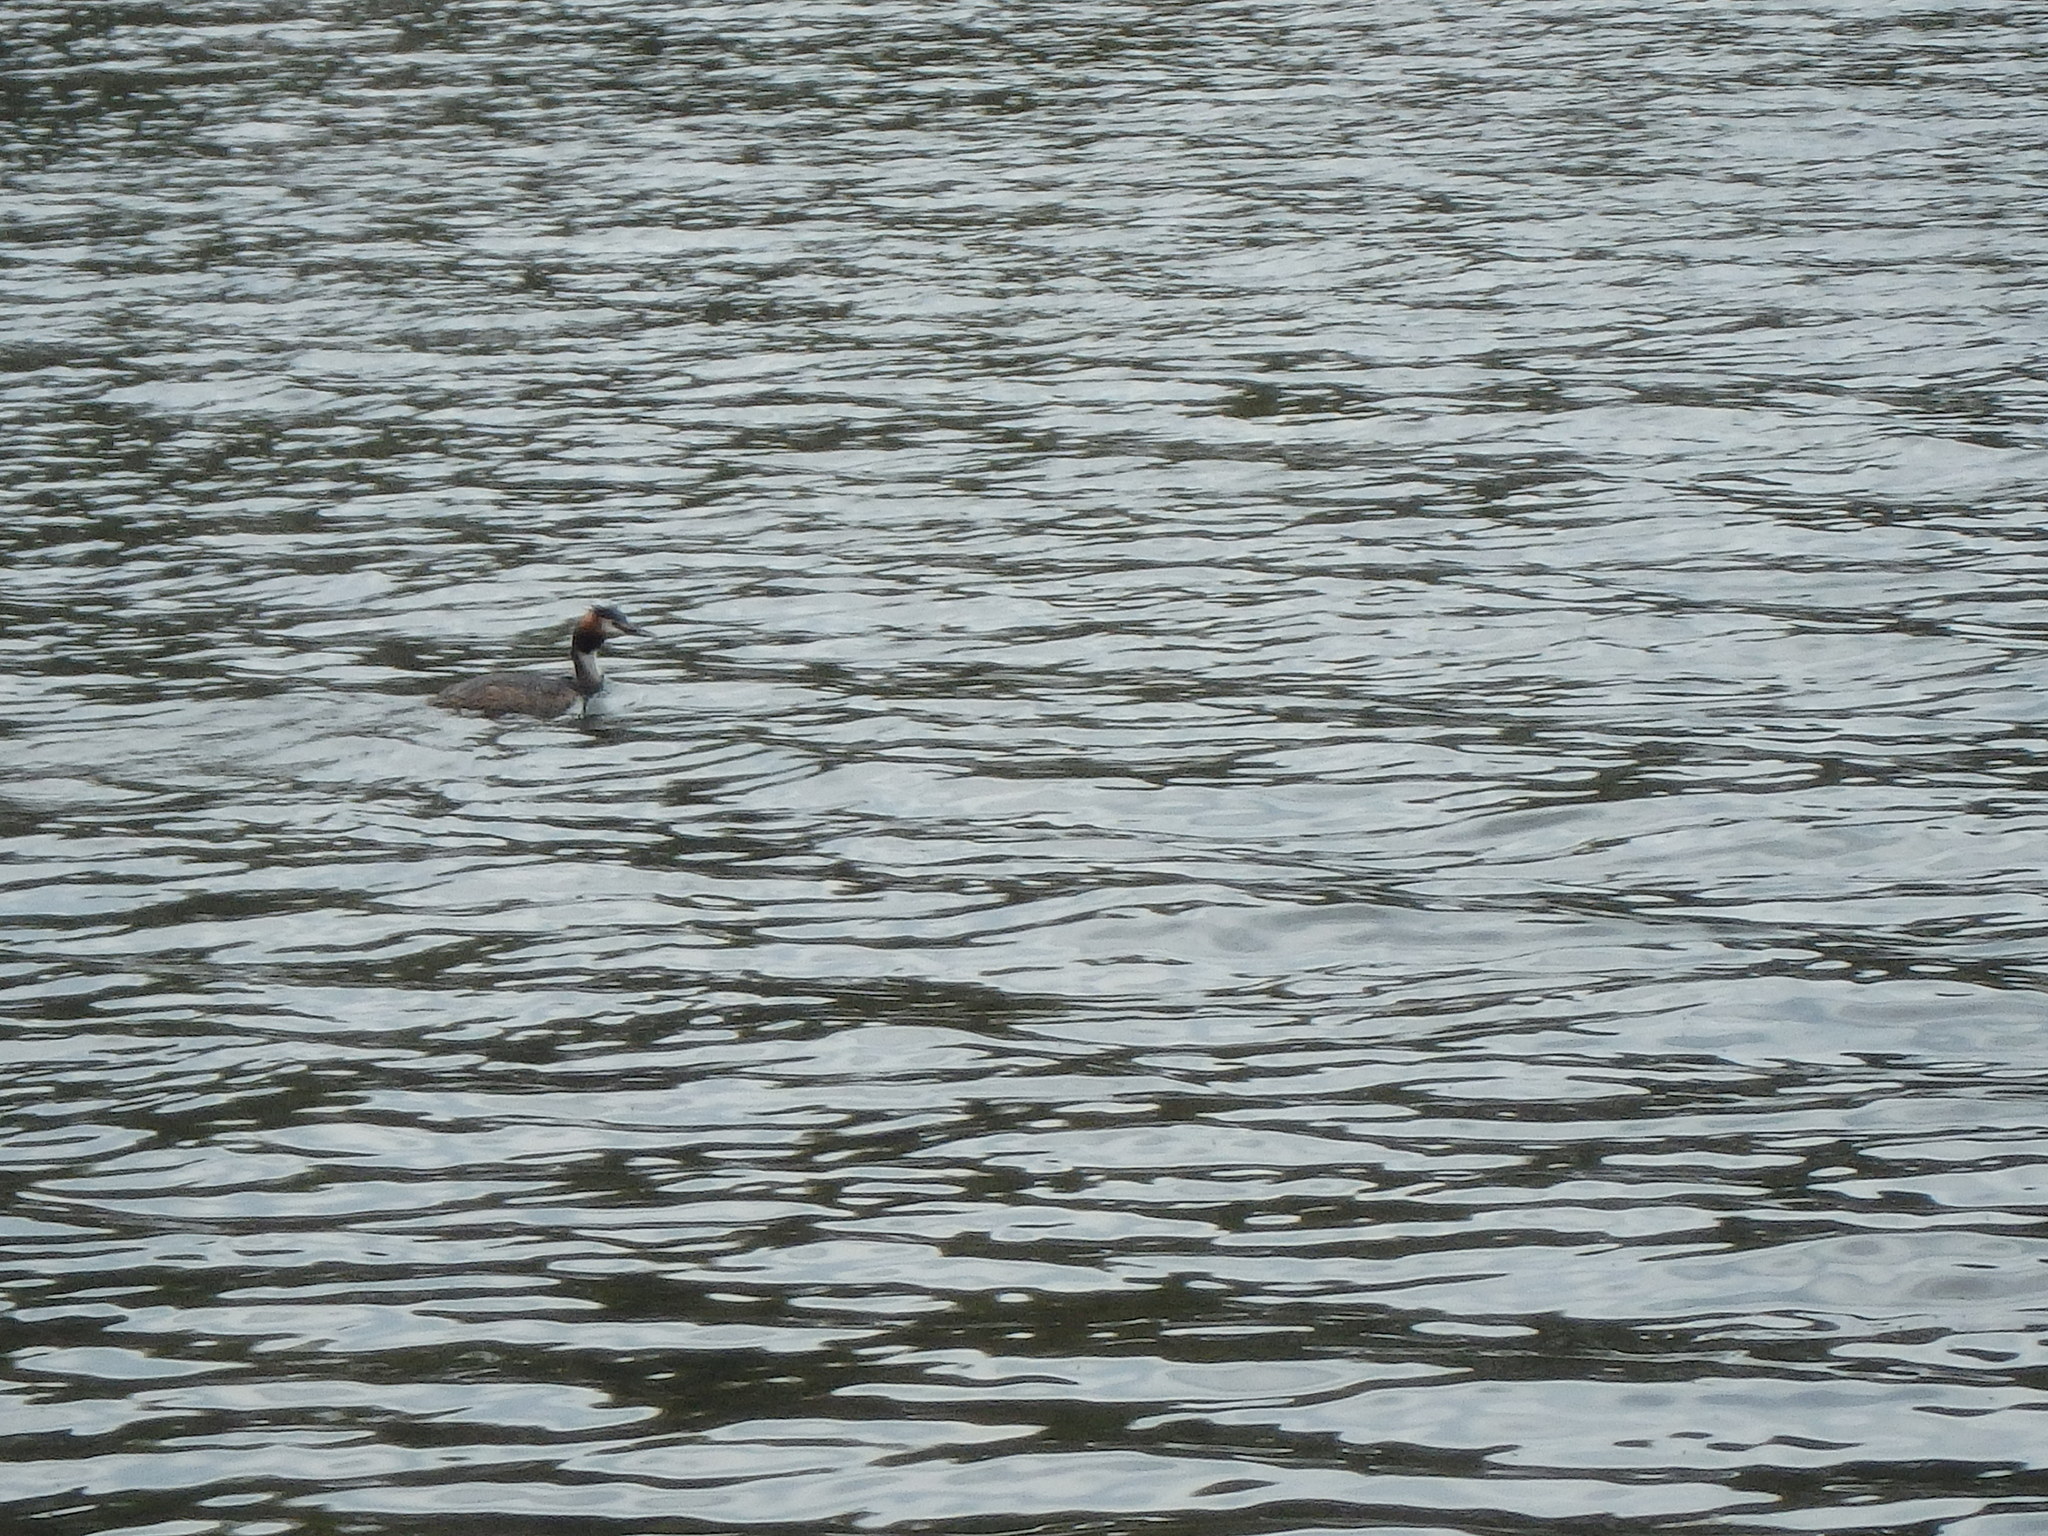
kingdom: Animalia
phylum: Chordata
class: Aves
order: Podicipediformes
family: Podicipedidae
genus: Podiceps
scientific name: Podiceps cristatus
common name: Great crested grebe
